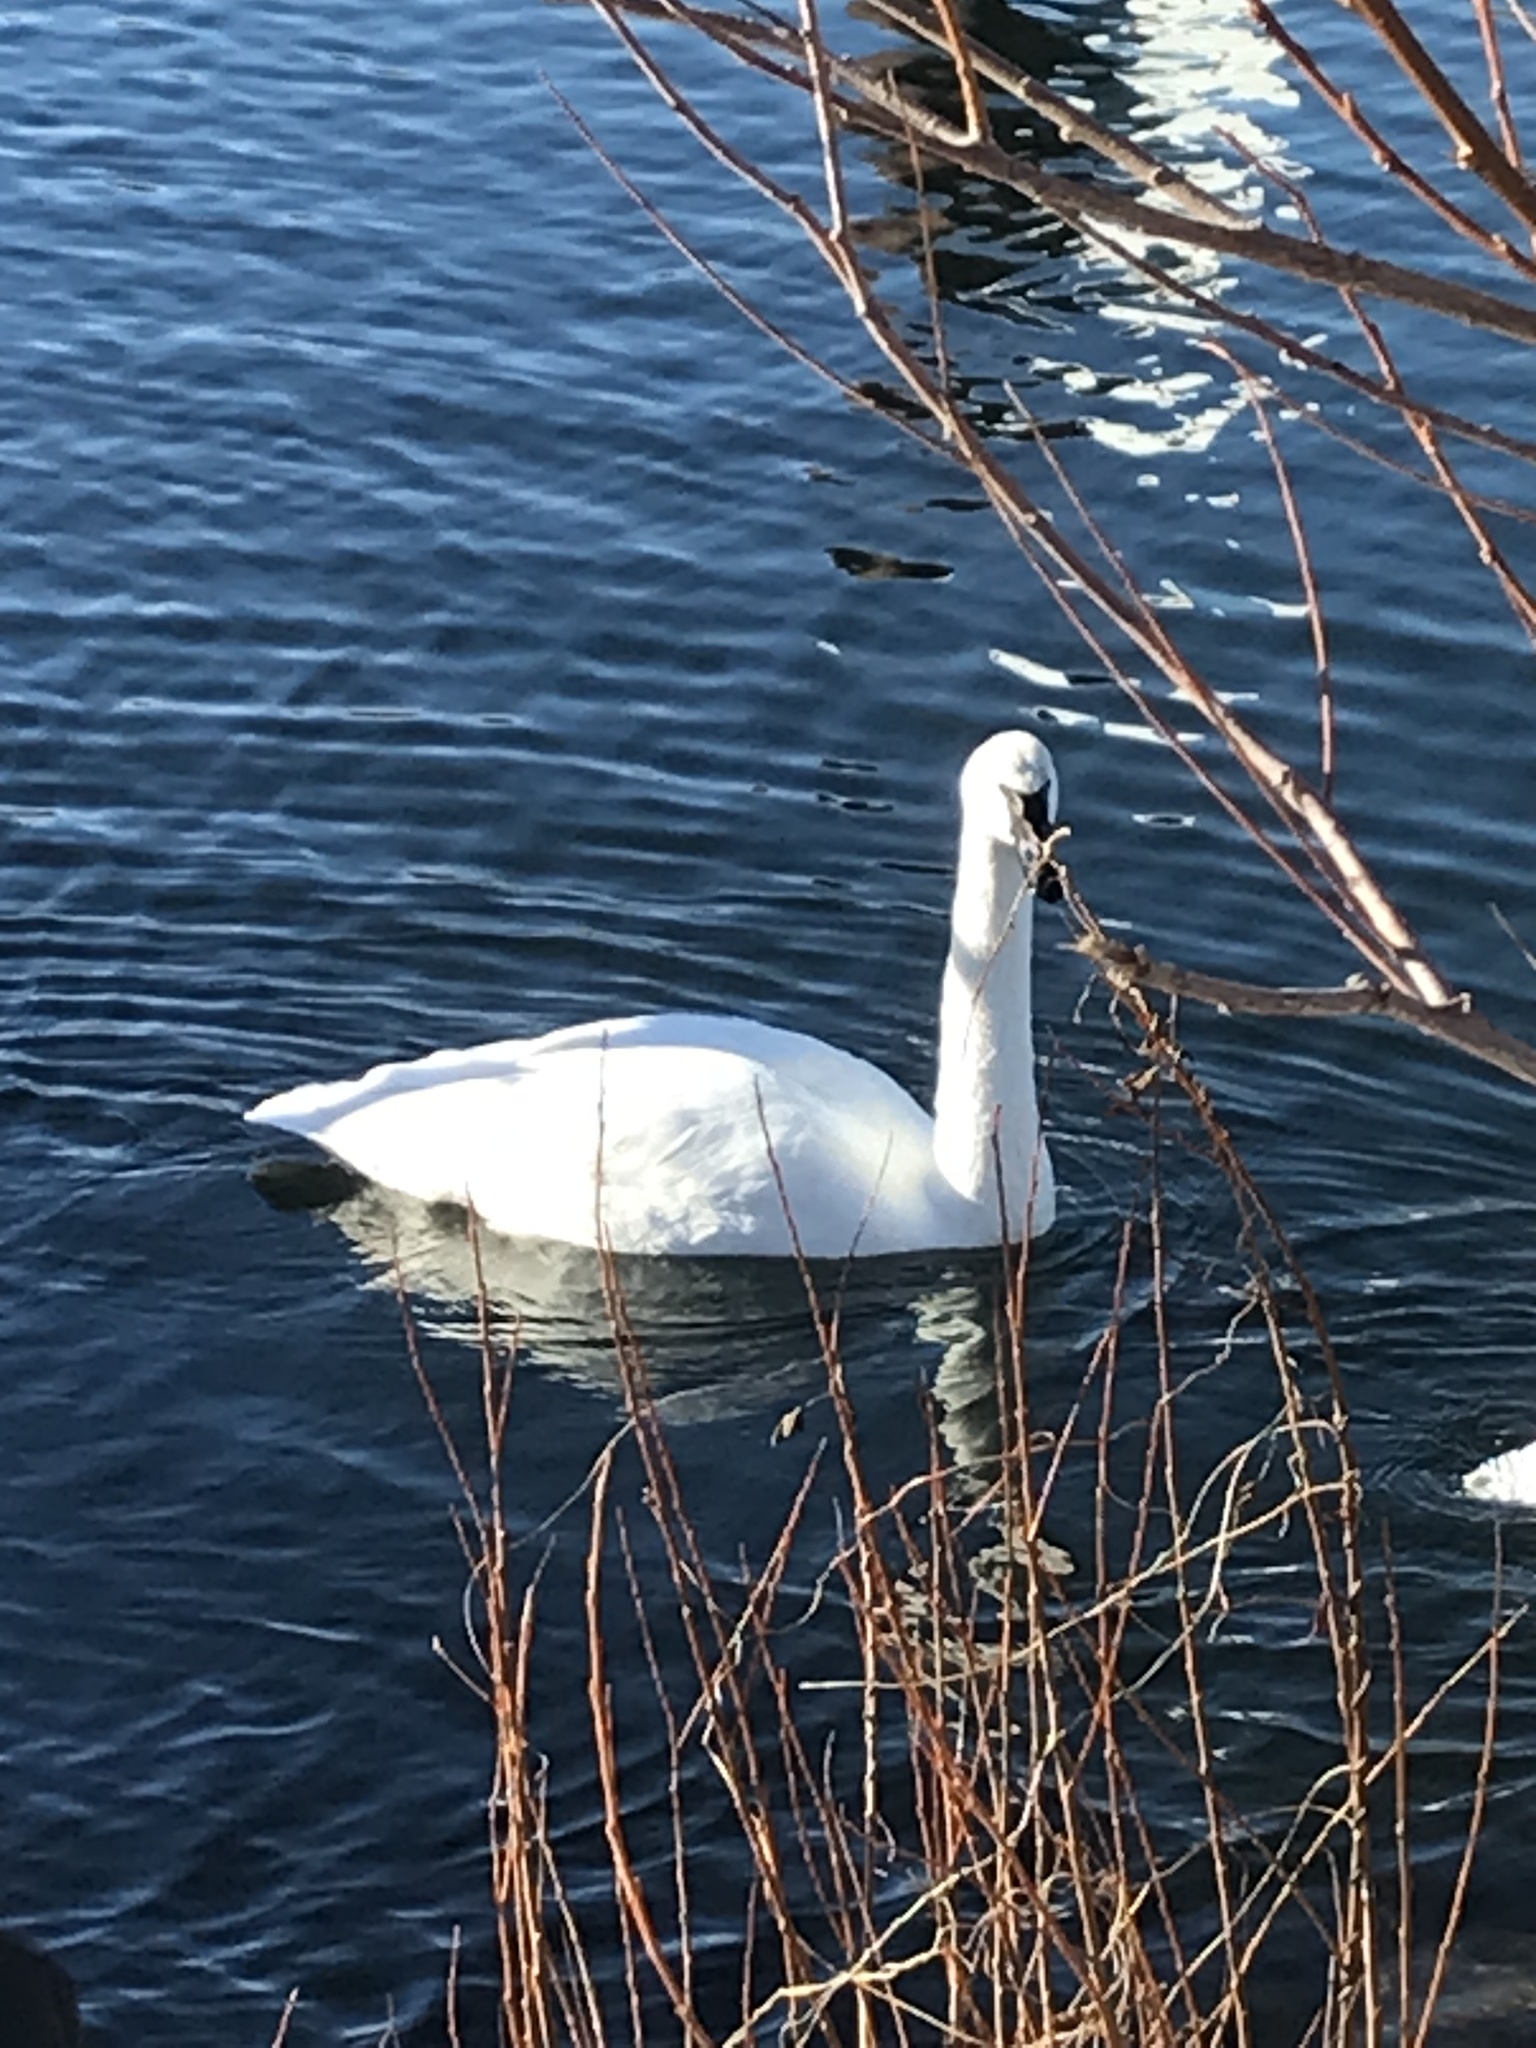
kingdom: Animalia
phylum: Chordata
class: Aves
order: Anseriformes
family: Anatidae
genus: Cygnus
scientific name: Cygnus buccinator
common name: Trumpeter swan
